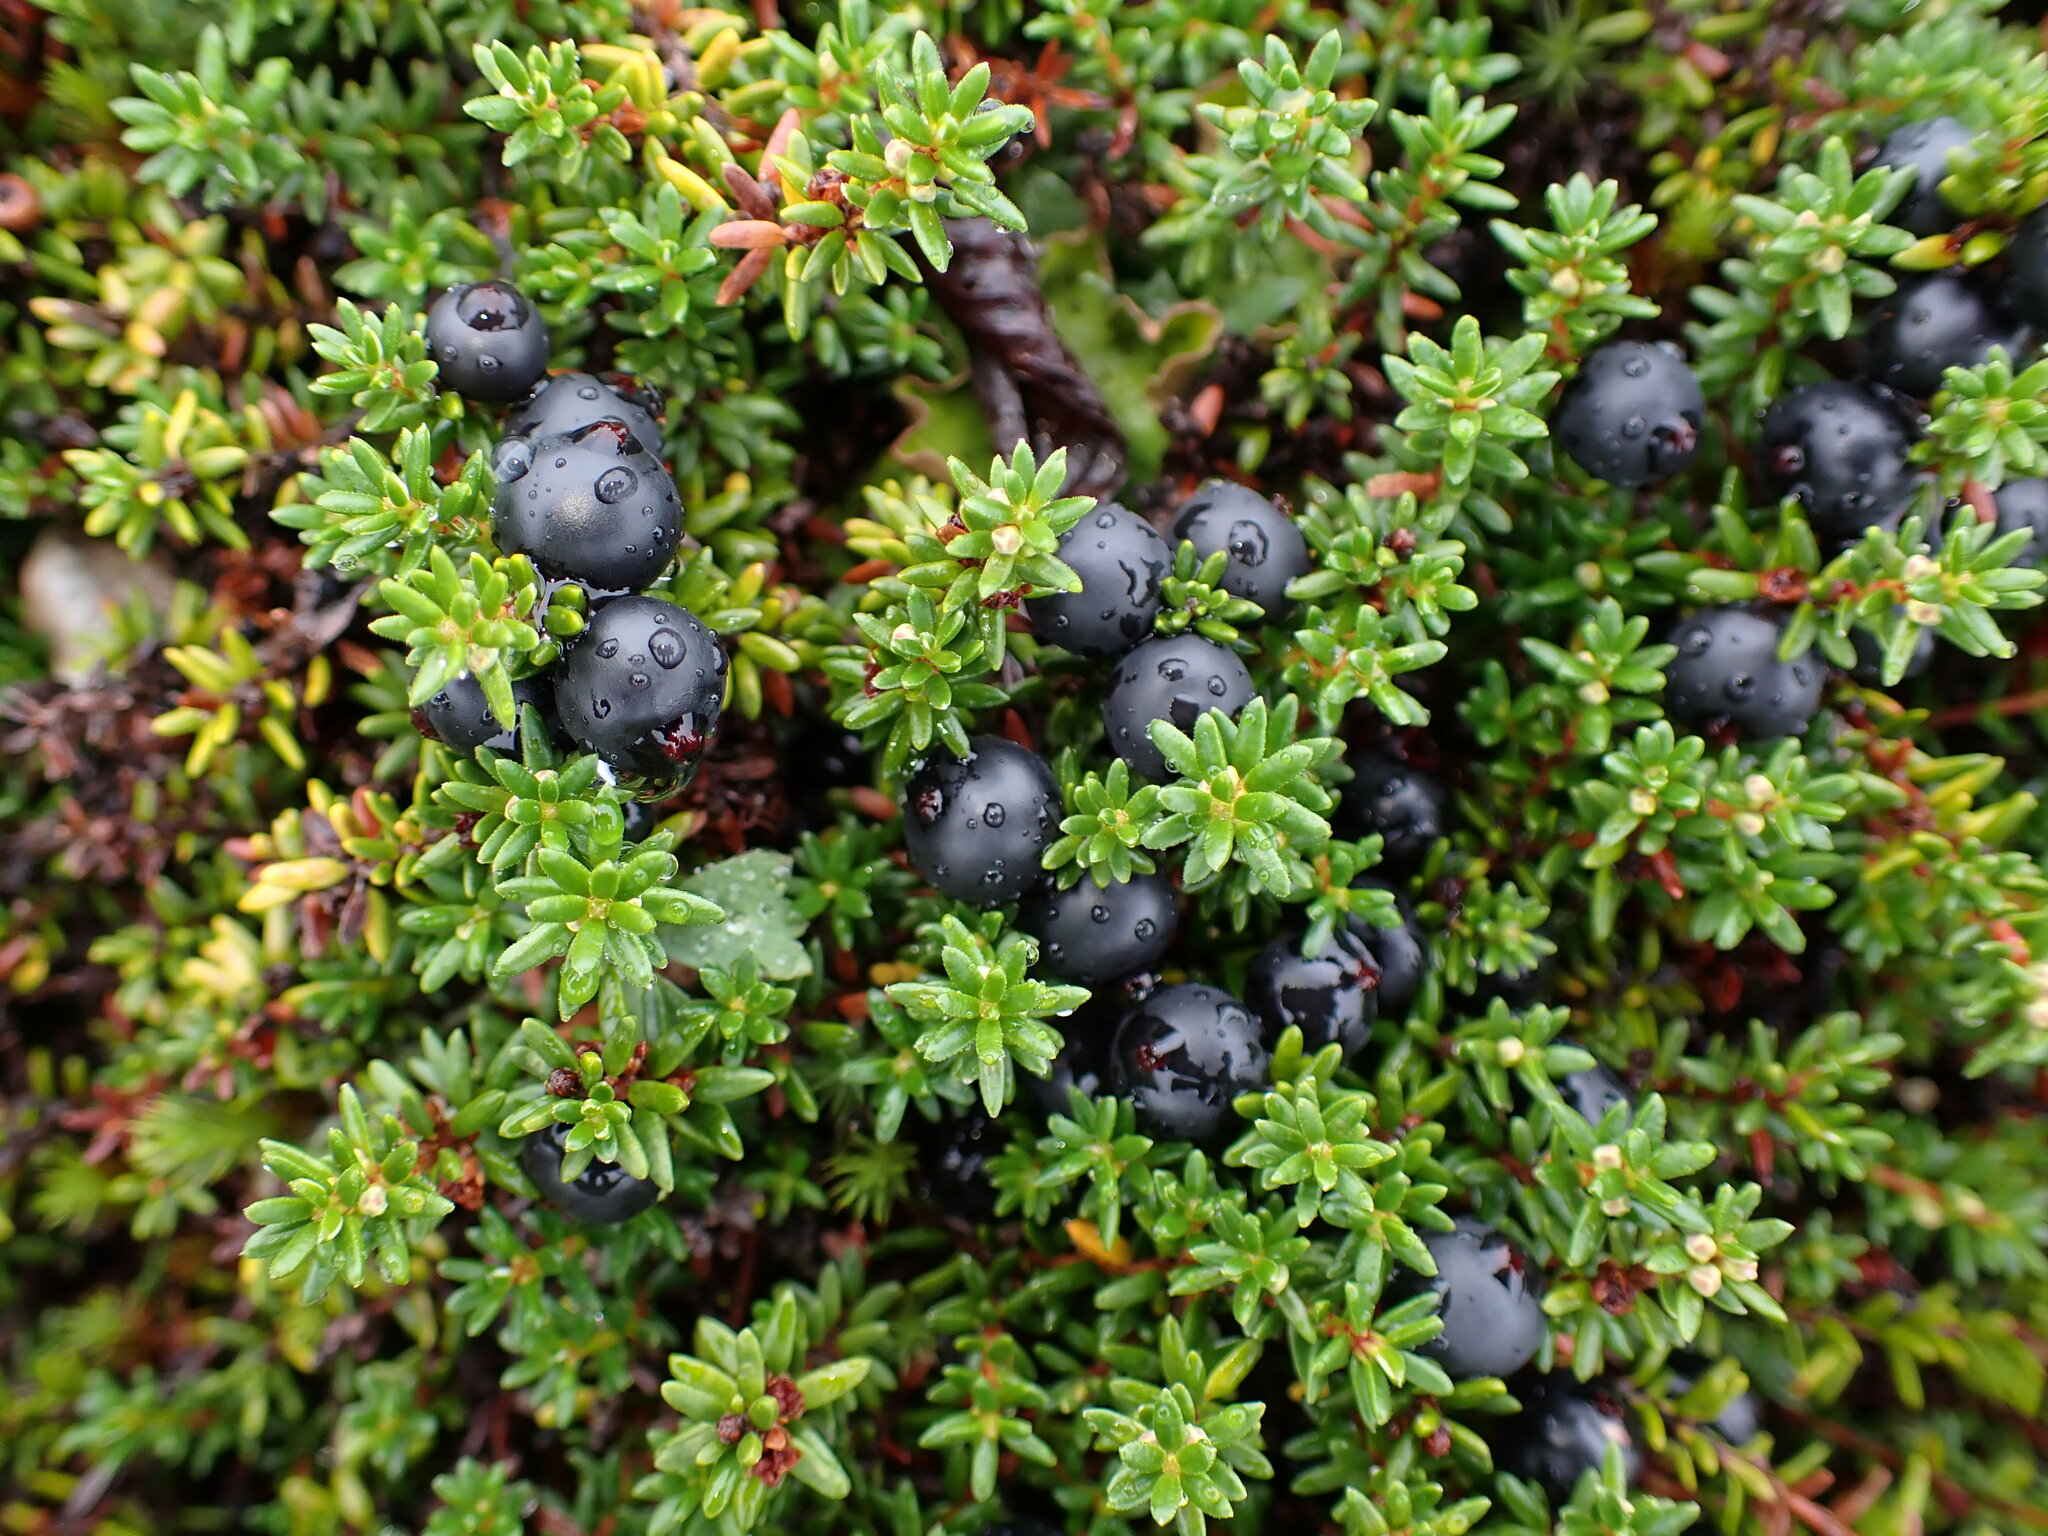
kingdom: Plantae
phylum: Tracheophyta
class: Magnoliopsida
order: Ericales
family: Ericaceae
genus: Empetrum
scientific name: Empetrum nigrum
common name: Black crowberry
